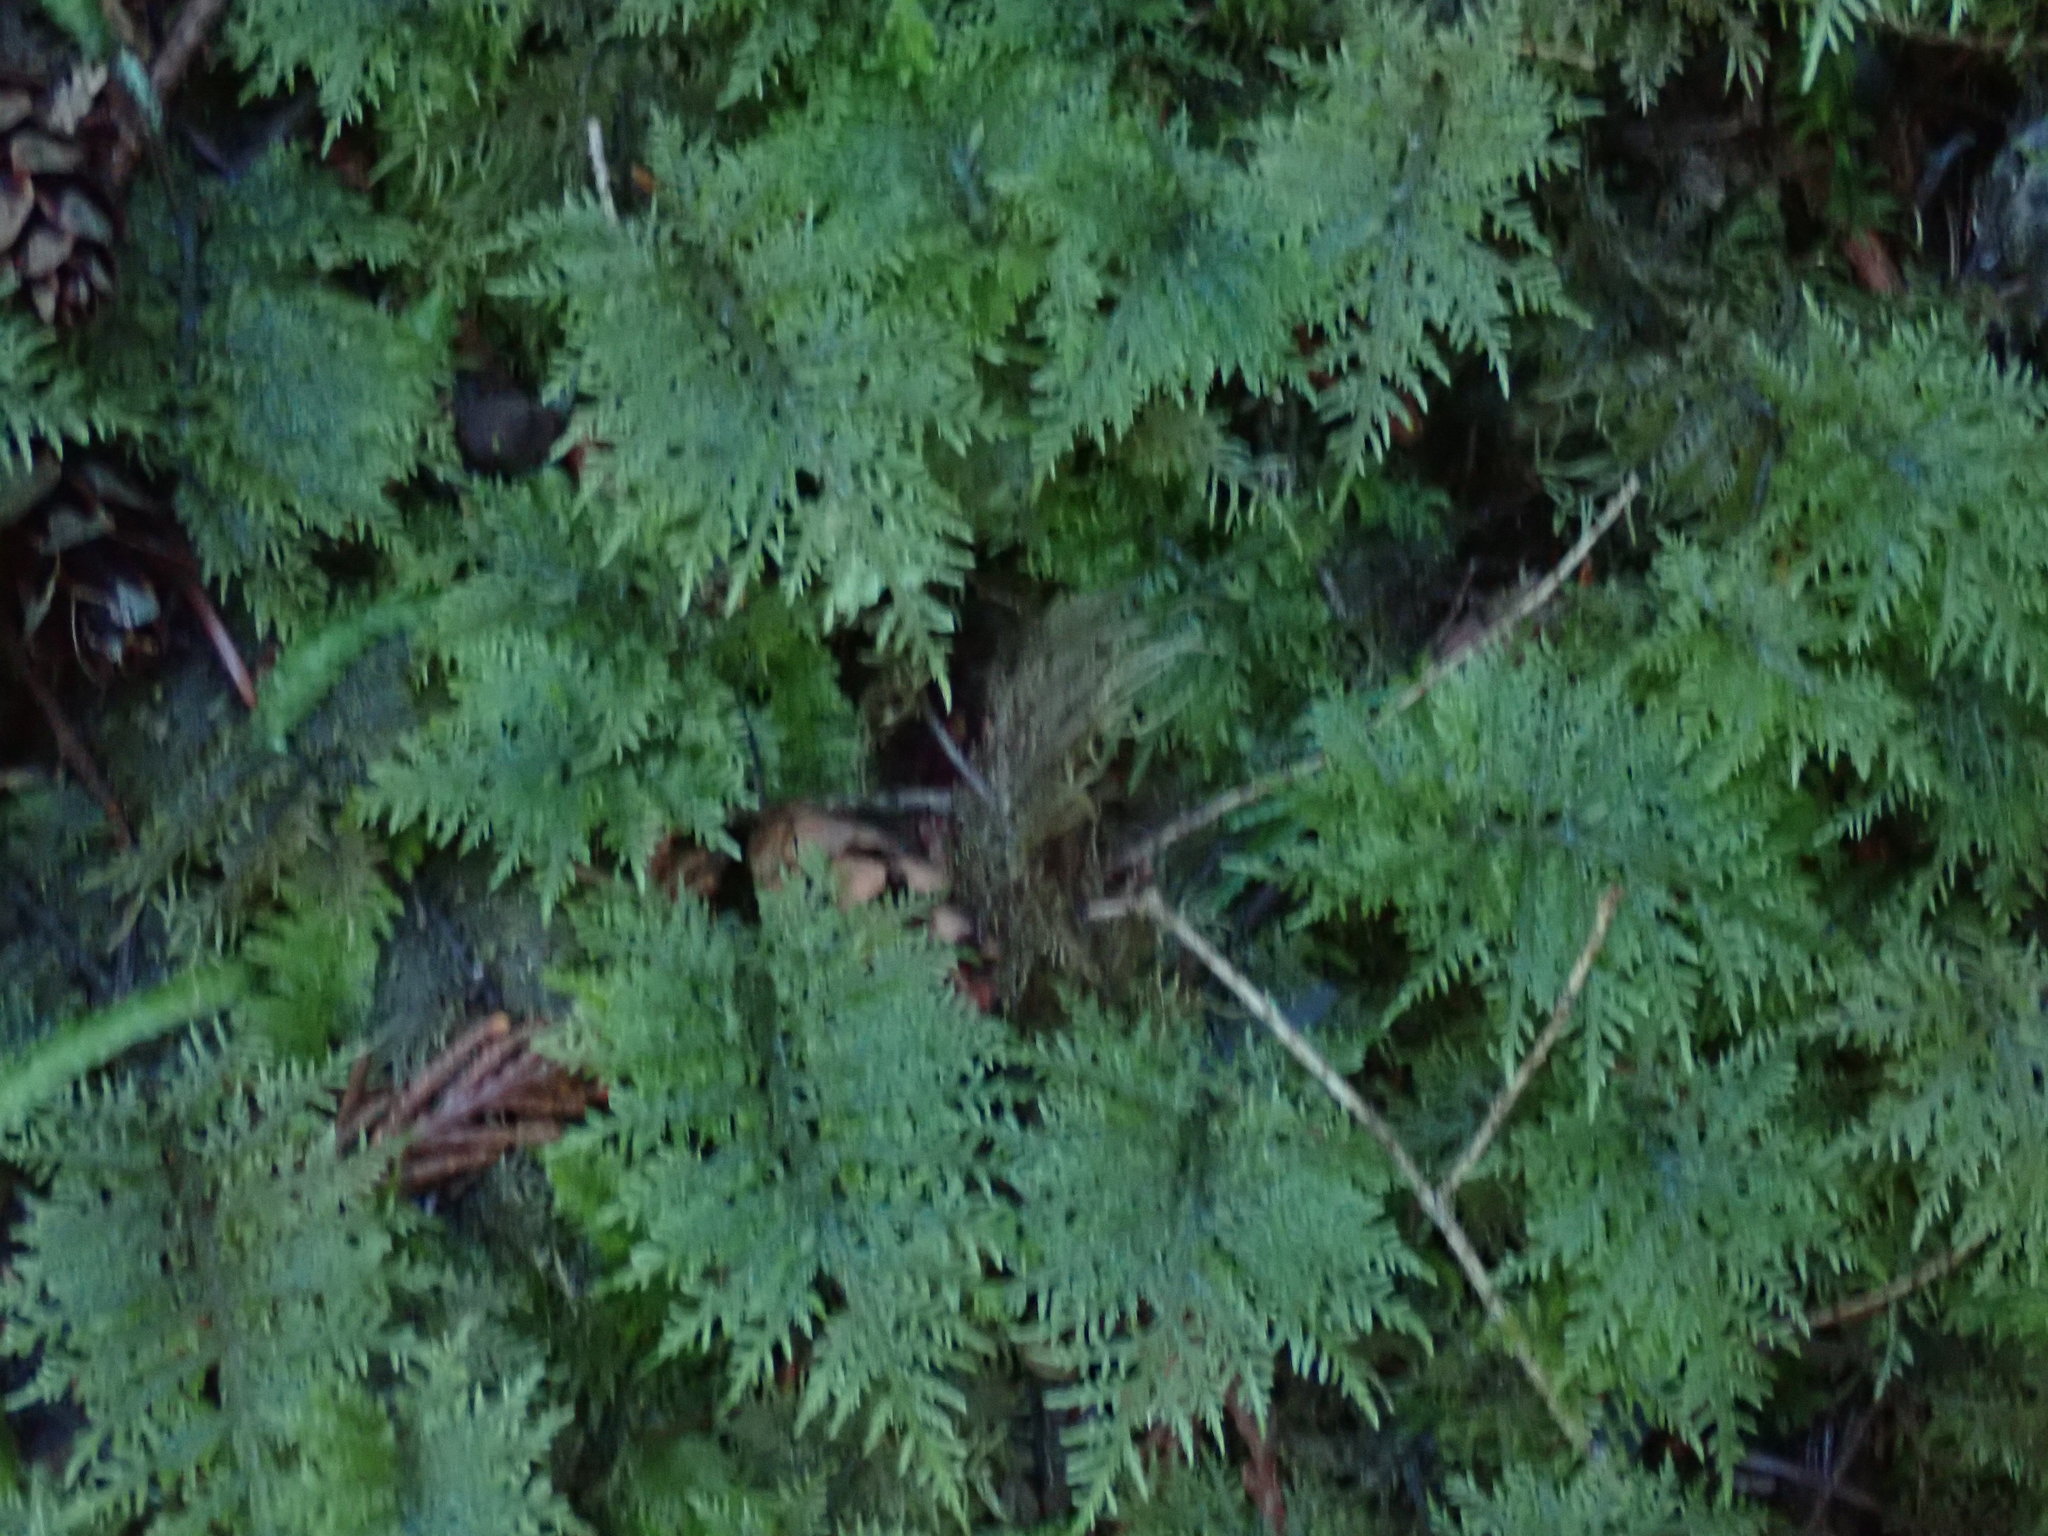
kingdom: Plantae
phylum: Bryophyta
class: Bryopsida
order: Hypnales
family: Hylocomiaceae
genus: Hylocomium
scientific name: Hylocomium splendens
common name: Stairstep moss
